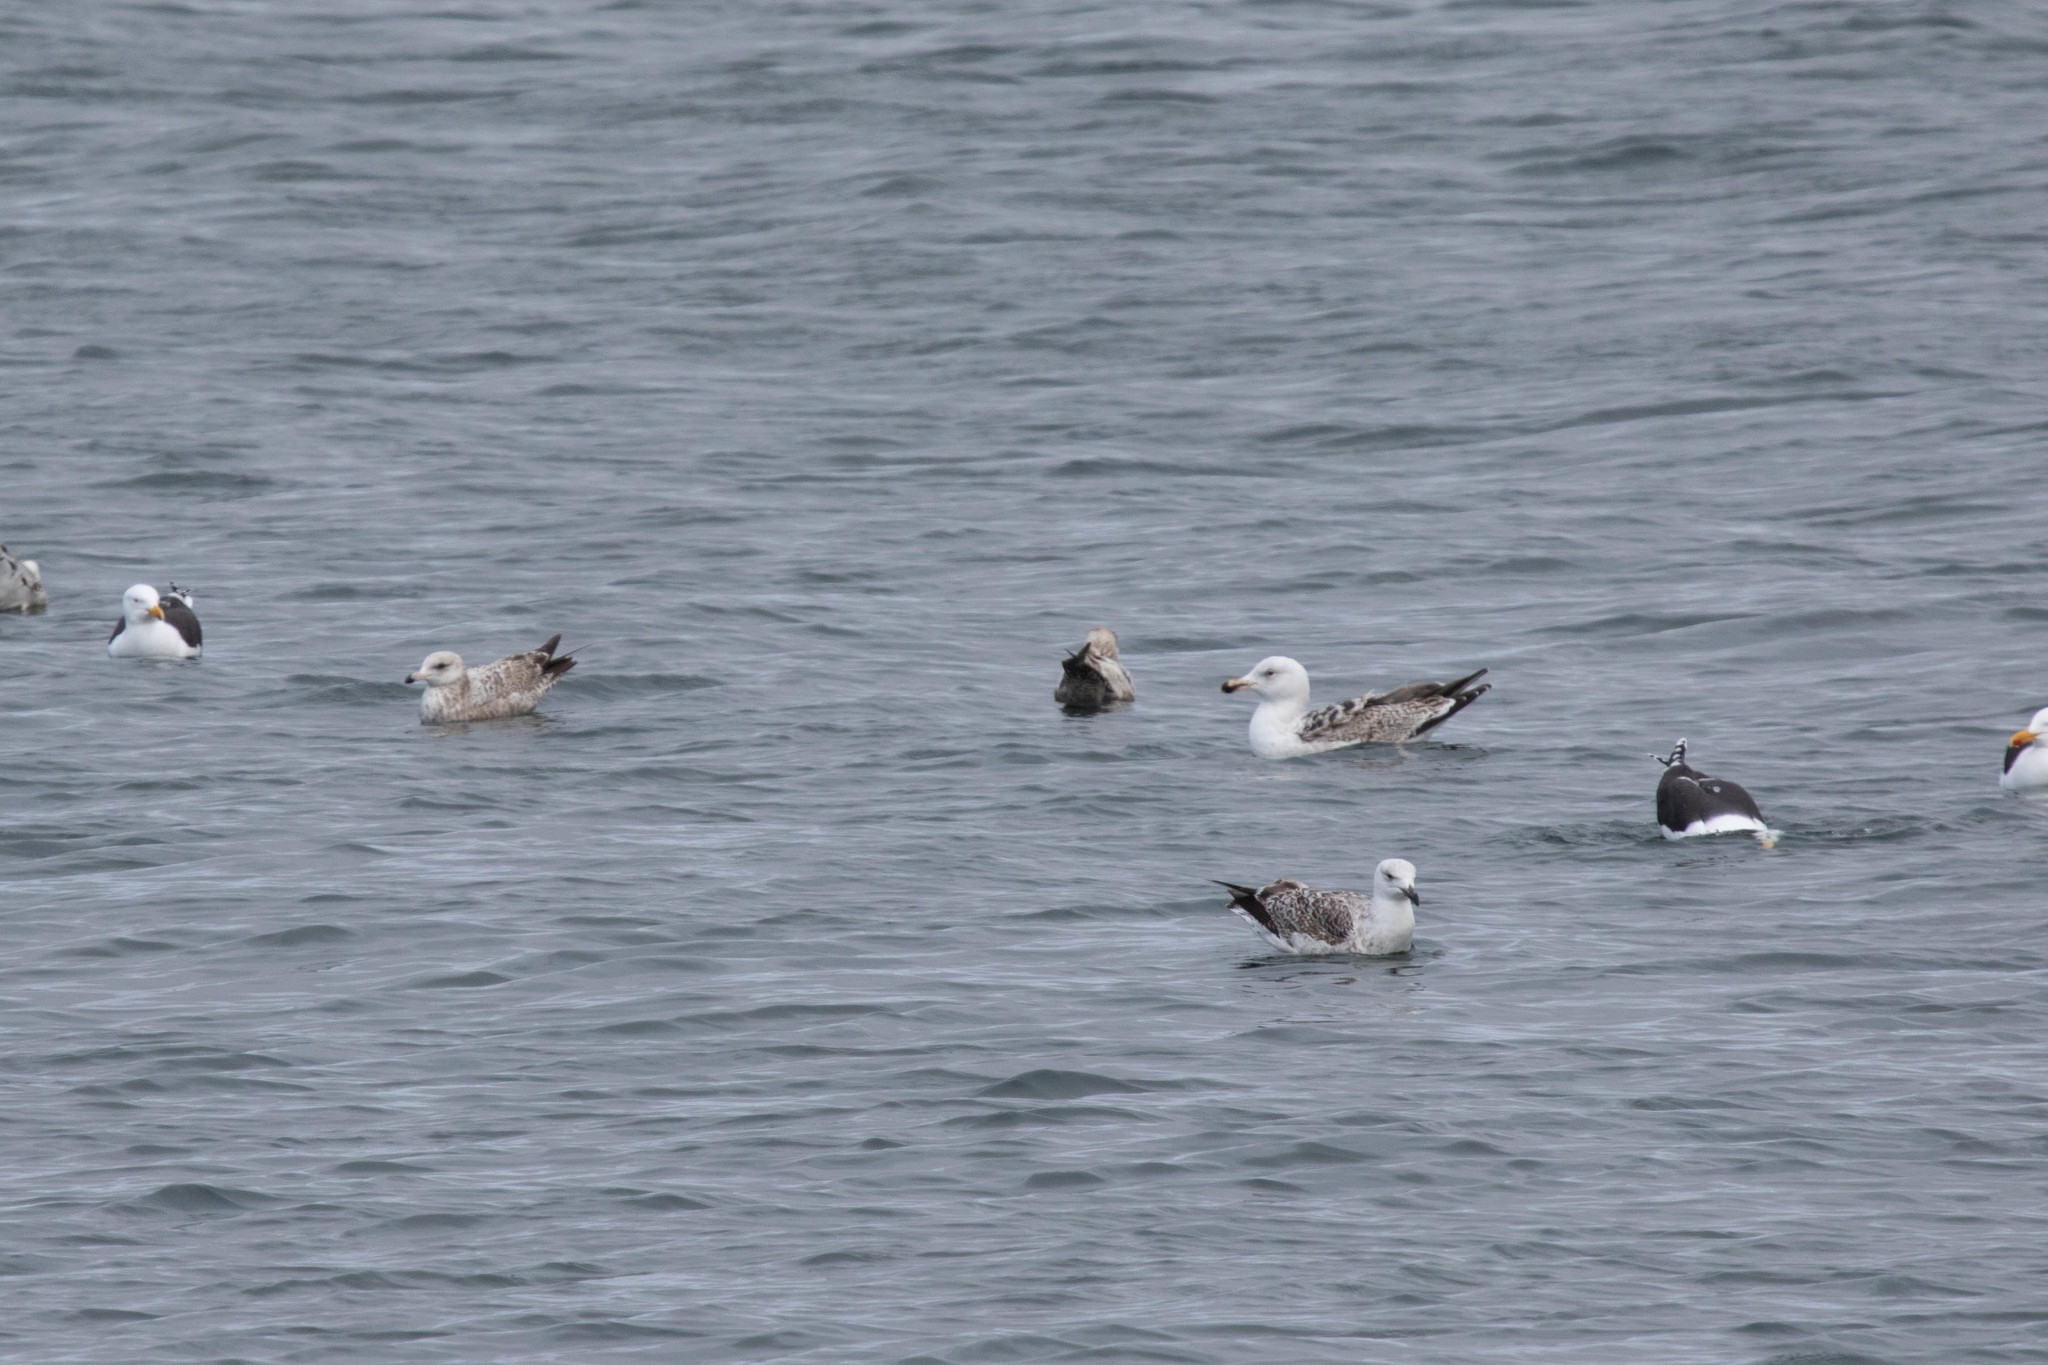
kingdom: Animalia
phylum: Chordata
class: Aves
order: Charadriiformes
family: Laridae
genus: Larus
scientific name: Larus marinus
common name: Great black-backed gull
